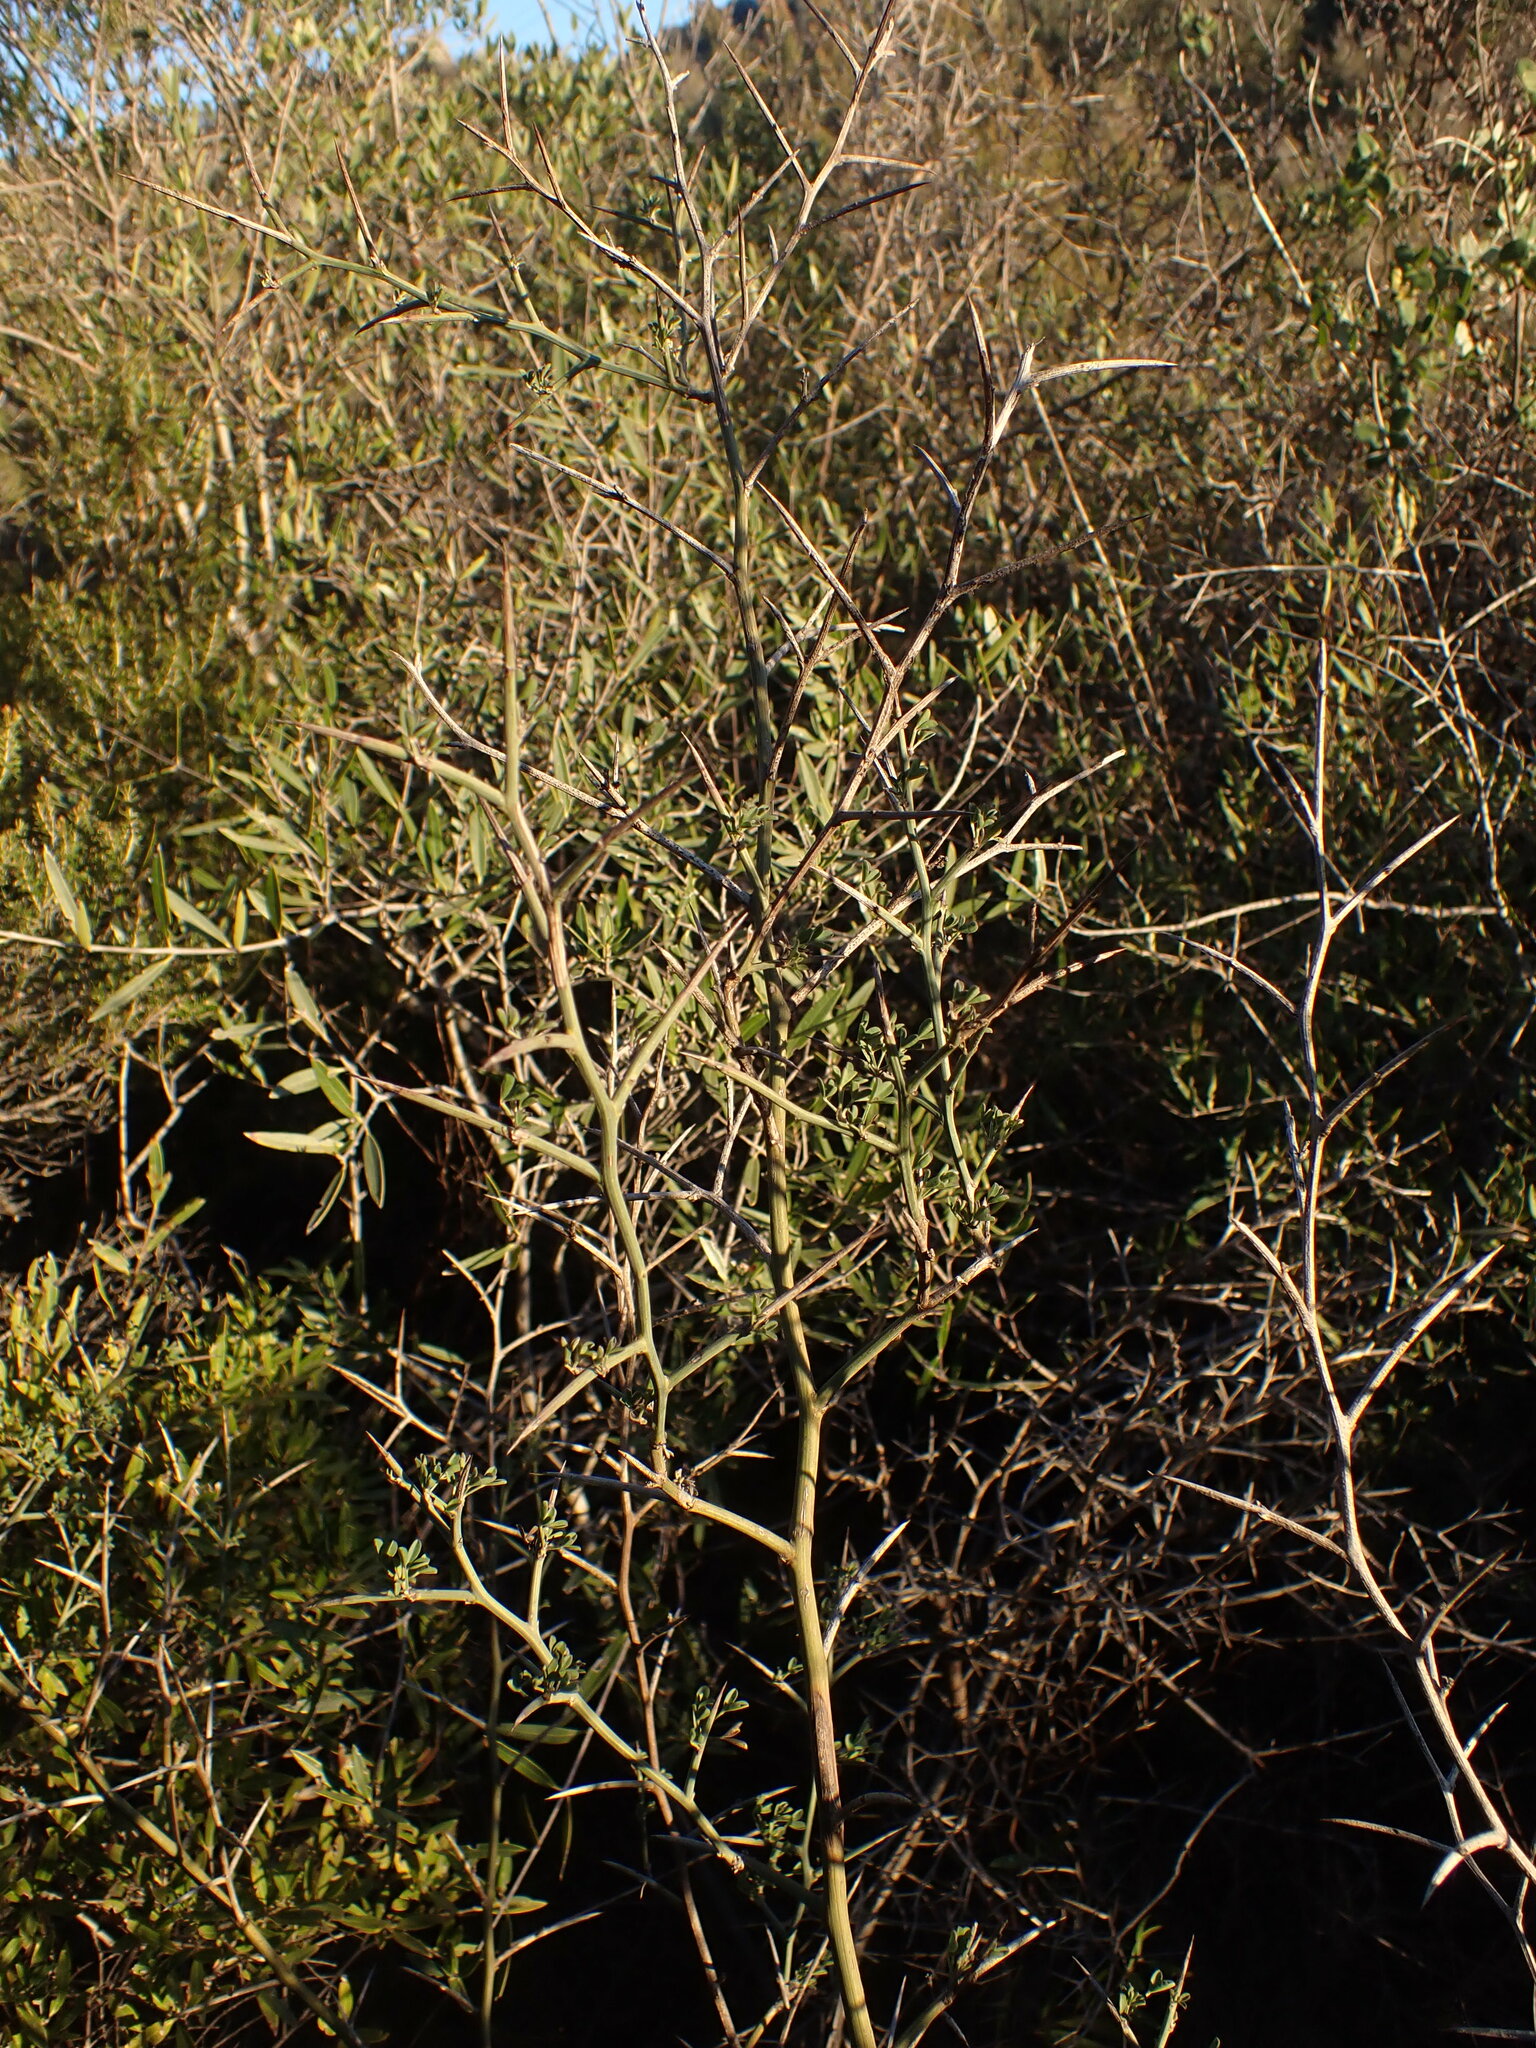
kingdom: Plantae
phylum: Tracheophyta
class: Magnoliopsida
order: Fabales
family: Fabaceae
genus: Calicotome
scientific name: Calicotome spinosa
